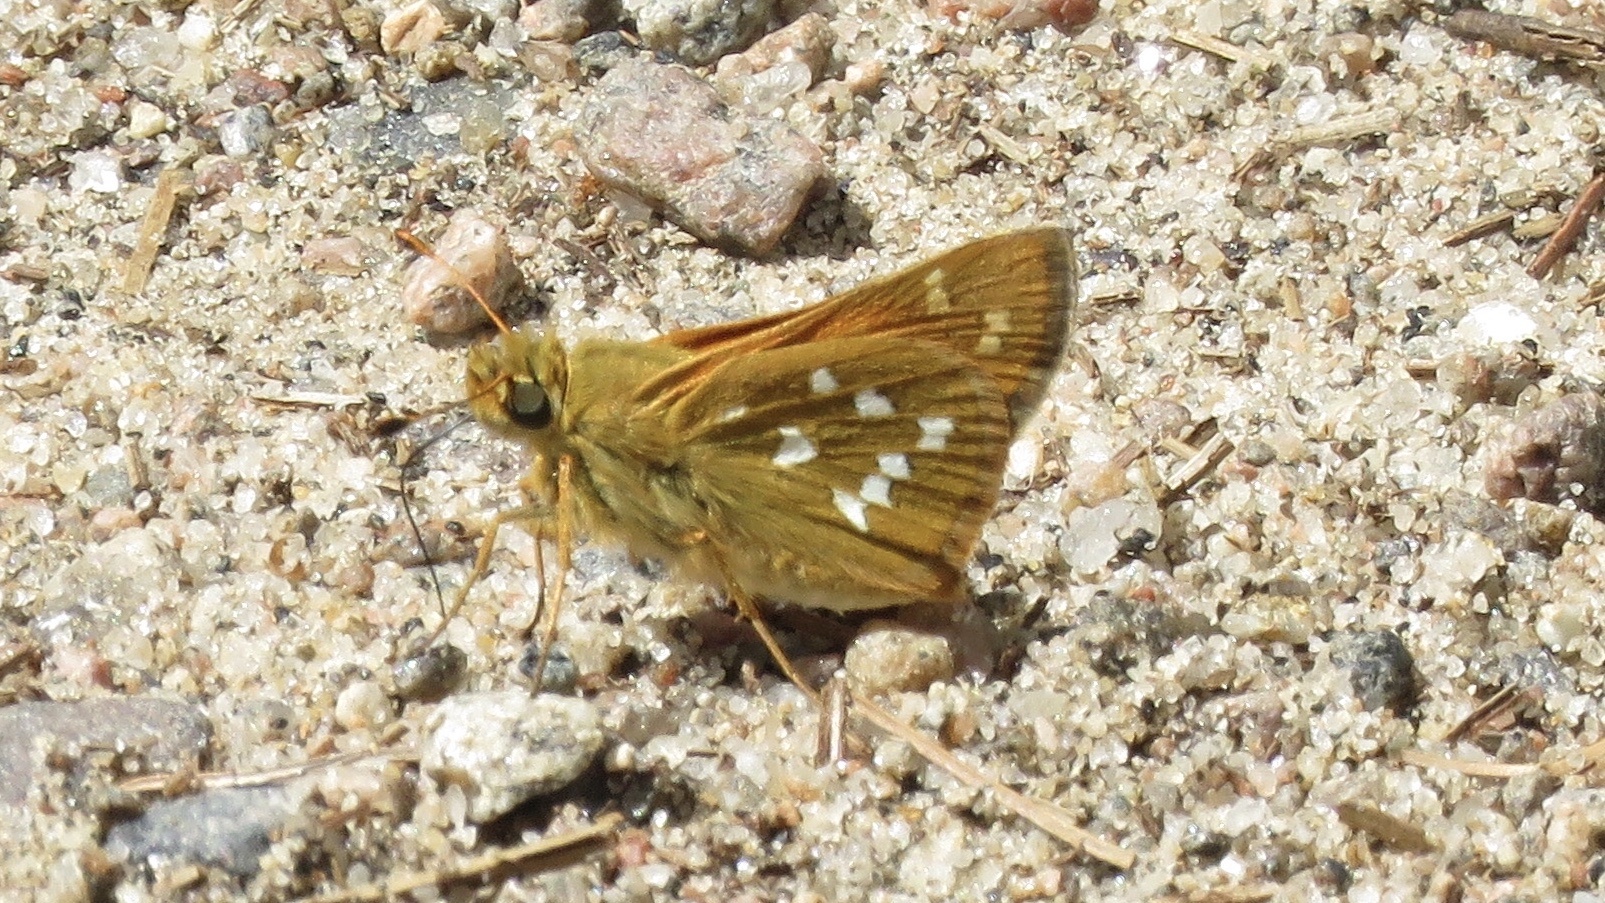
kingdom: Animalia
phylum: Arthropoda
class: Insecta
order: Lepidoptera
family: Hesperiidae
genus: Hesperia
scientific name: Hesperia comma
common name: Common branded skipper
